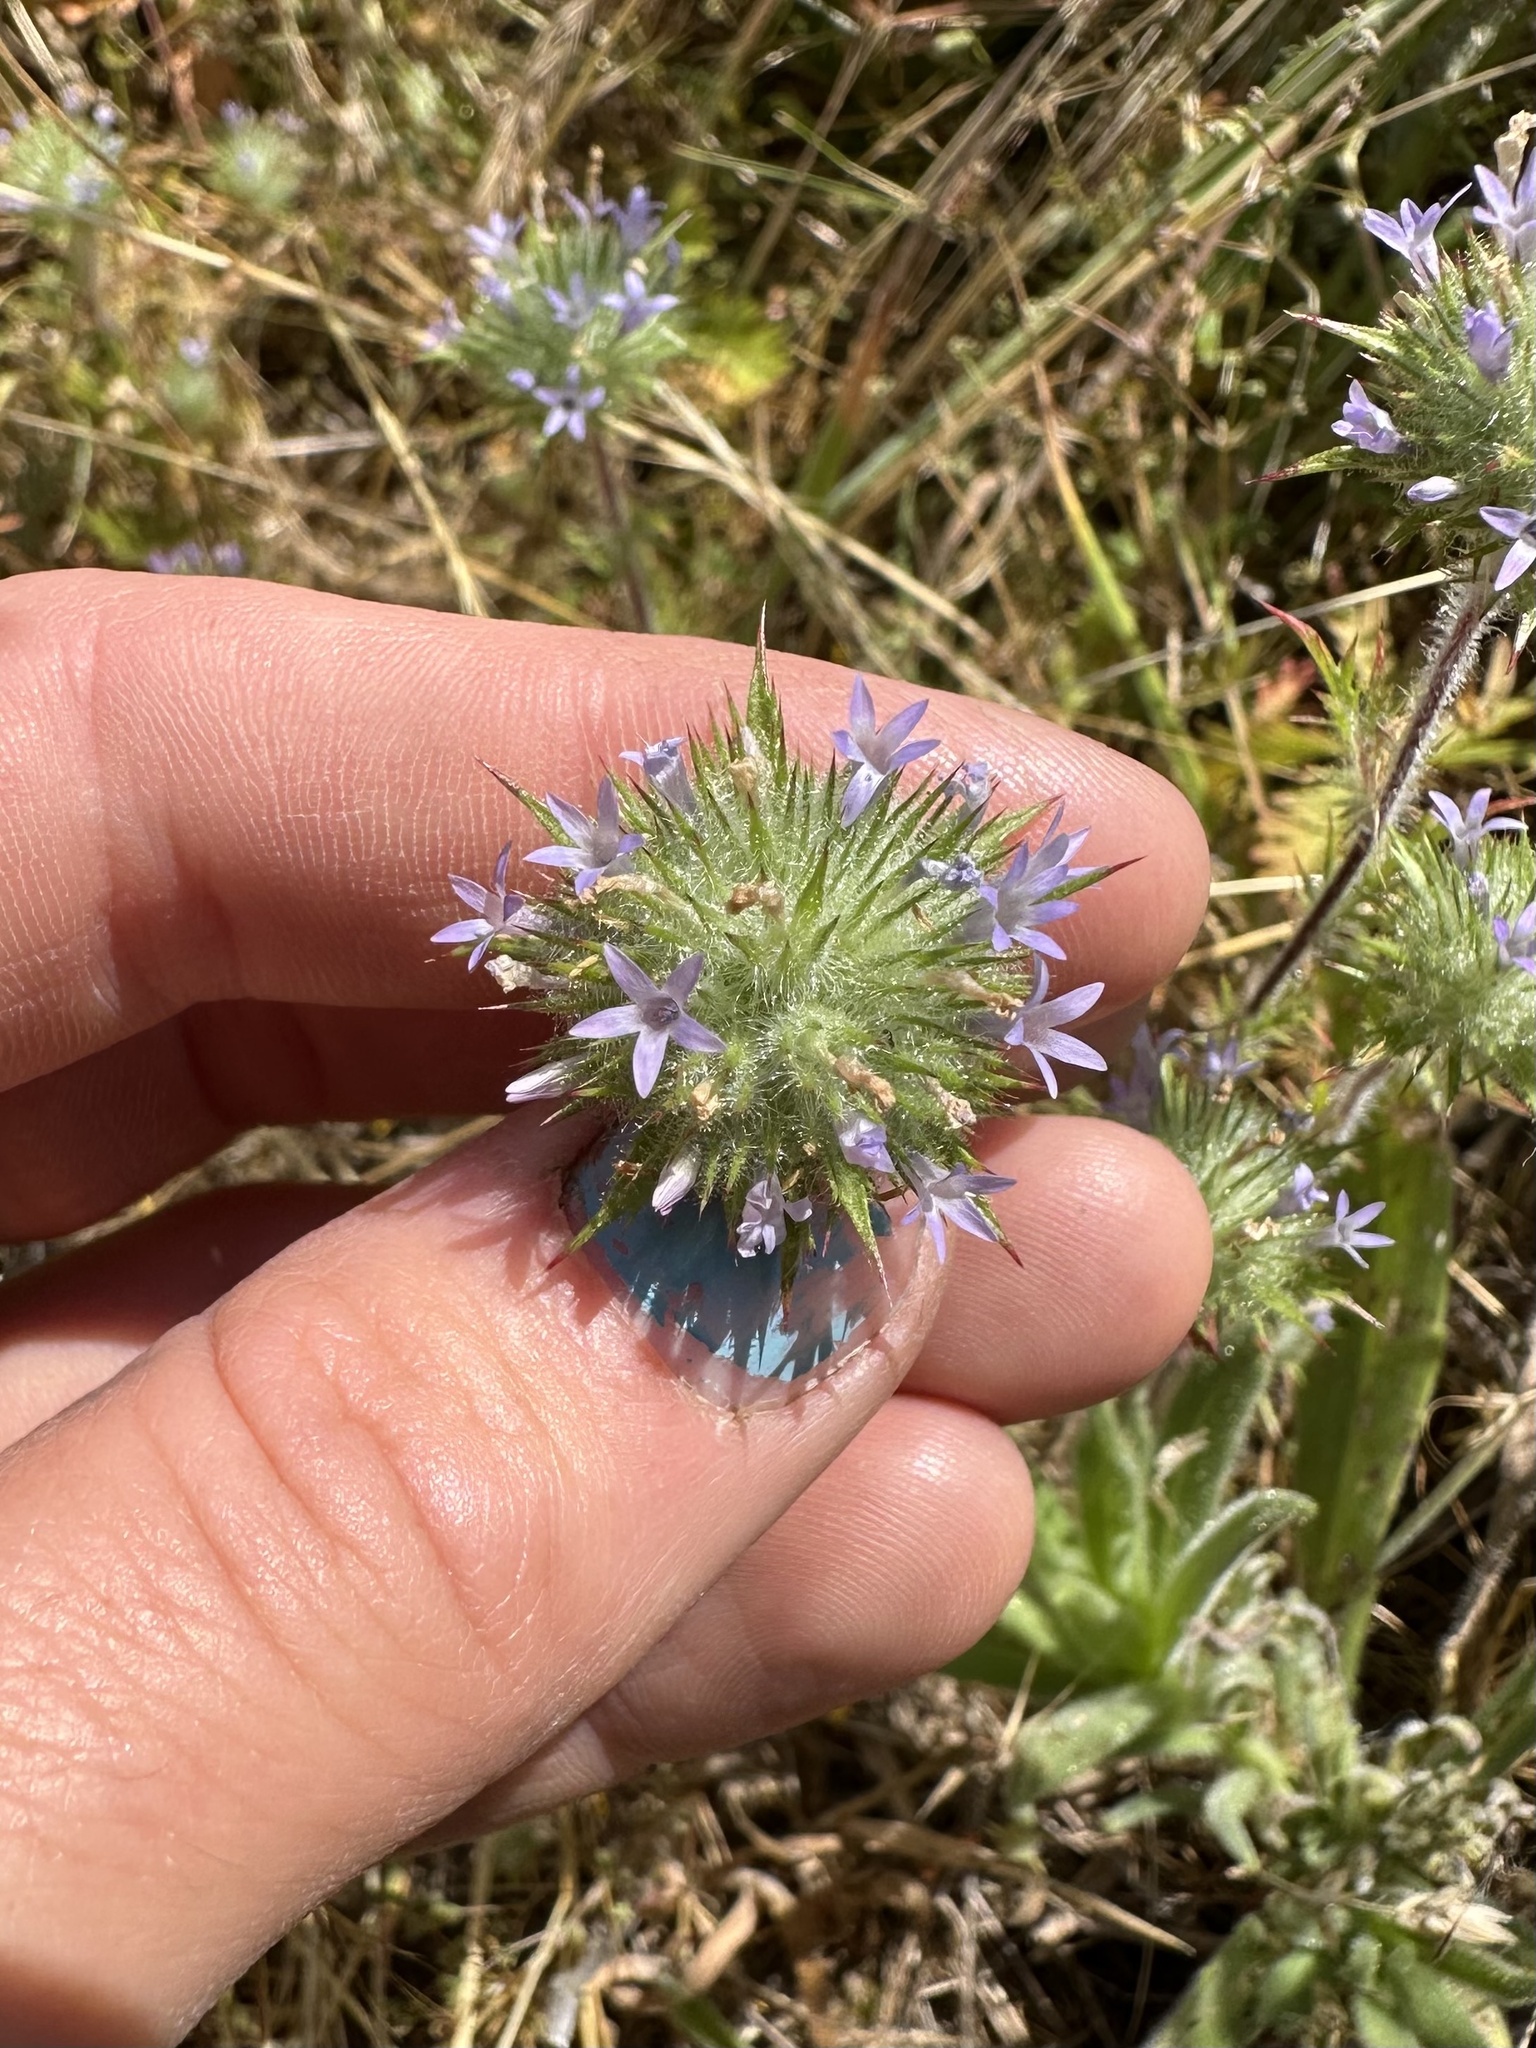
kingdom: Plantae
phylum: Tracheophyta
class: Magnoliopsida
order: Ericales
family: Polemoniaceae
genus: Navarretia
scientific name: Navarretia squarrosa
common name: Skunkweed
